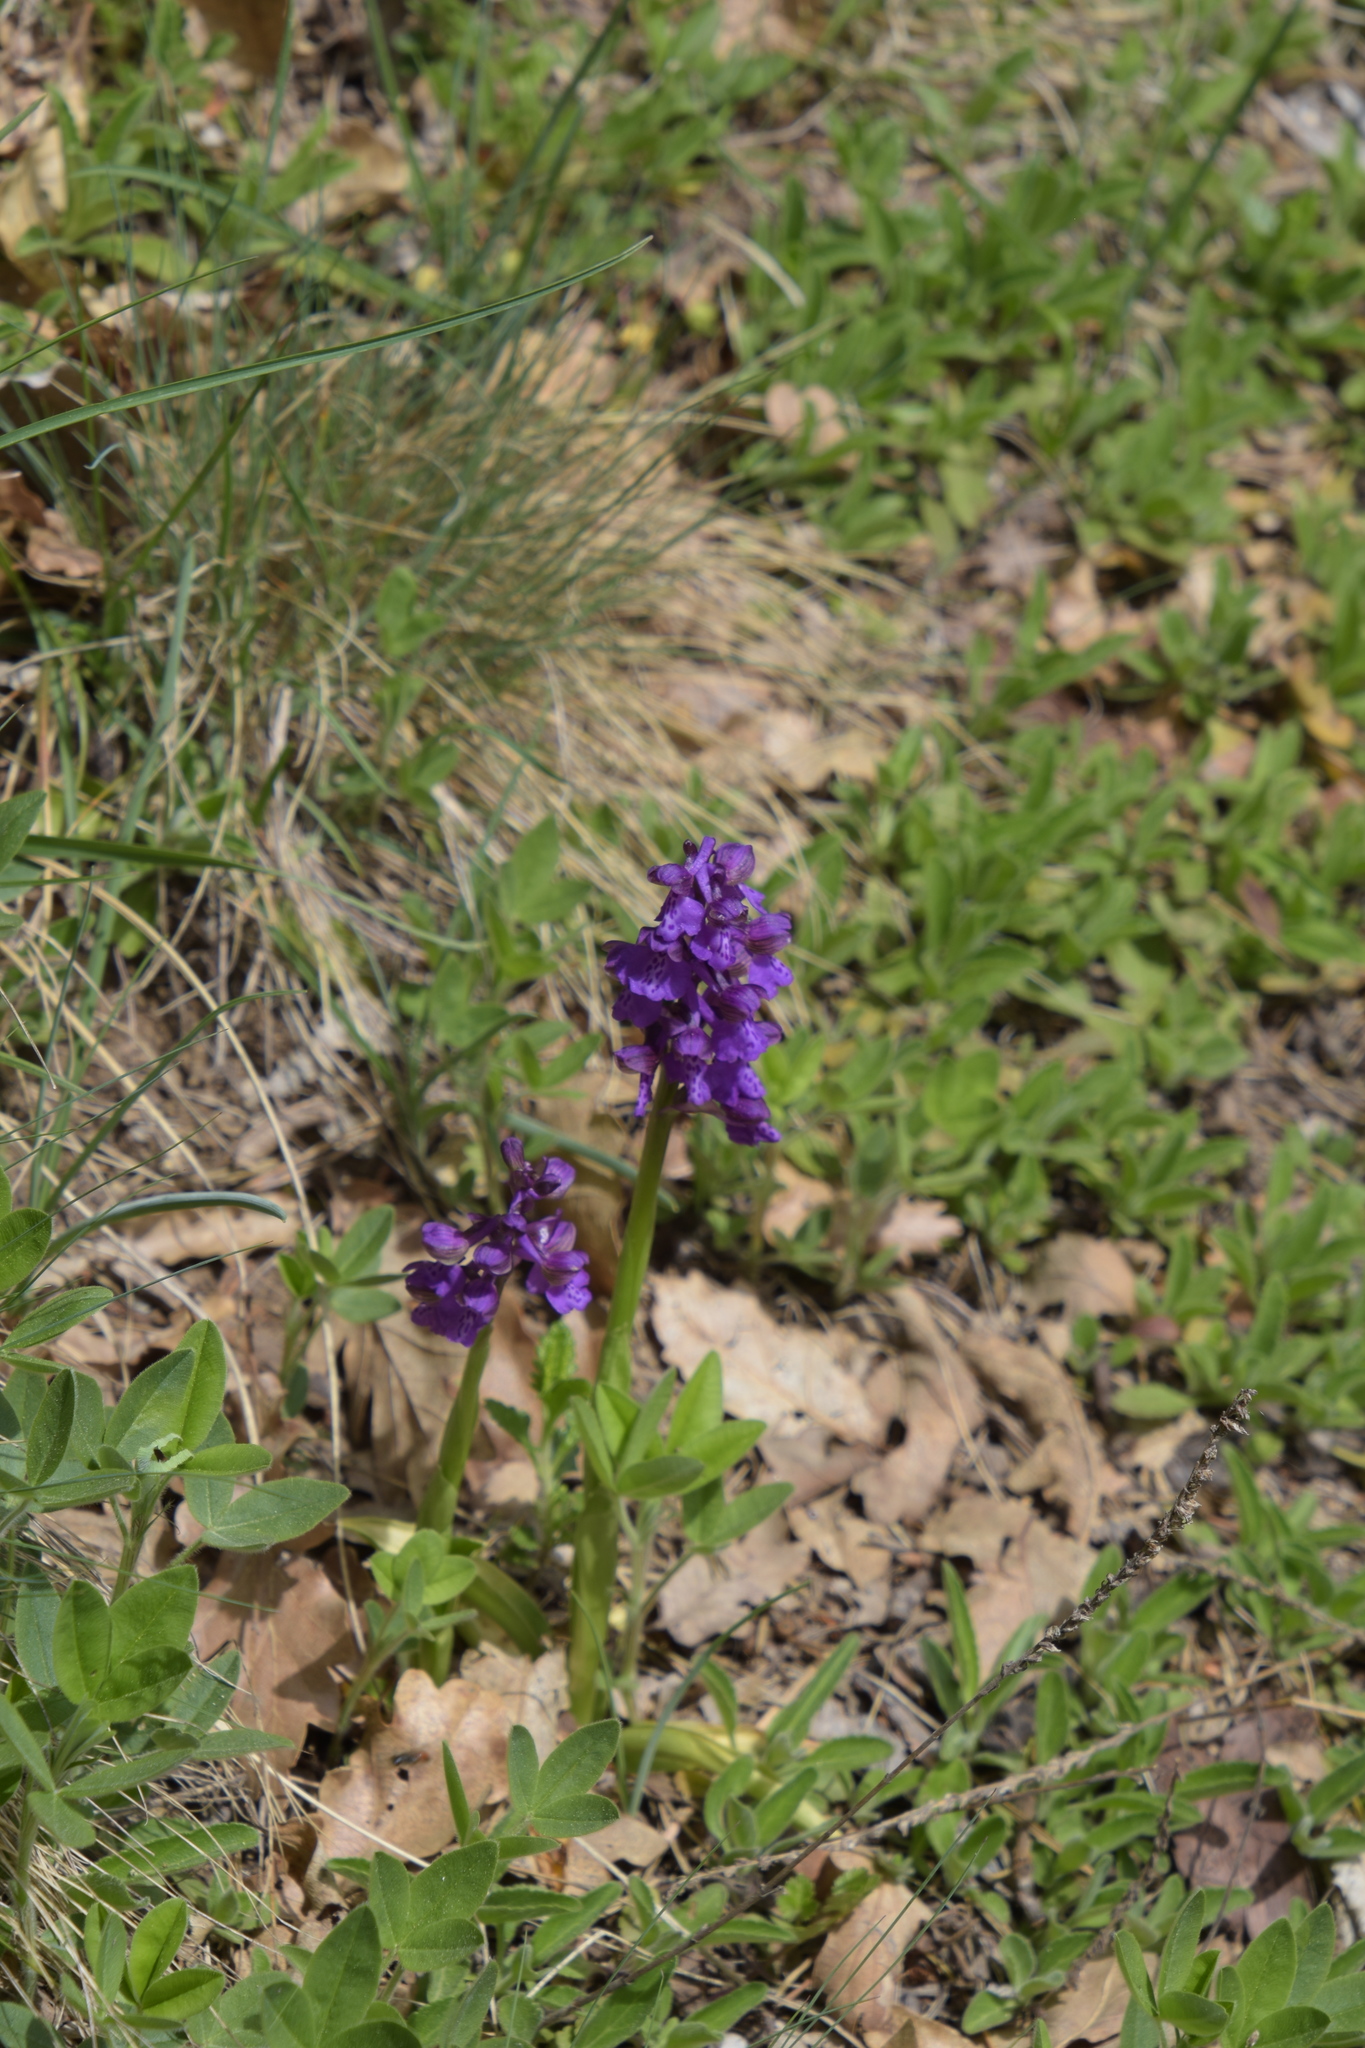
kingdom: Plantae
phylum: Tracheophyta
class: Liliopsida
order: Asparagales
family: Orchidaceae
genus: Anacamptis
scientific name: Anacamptis morio
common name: Green-winged orchid
